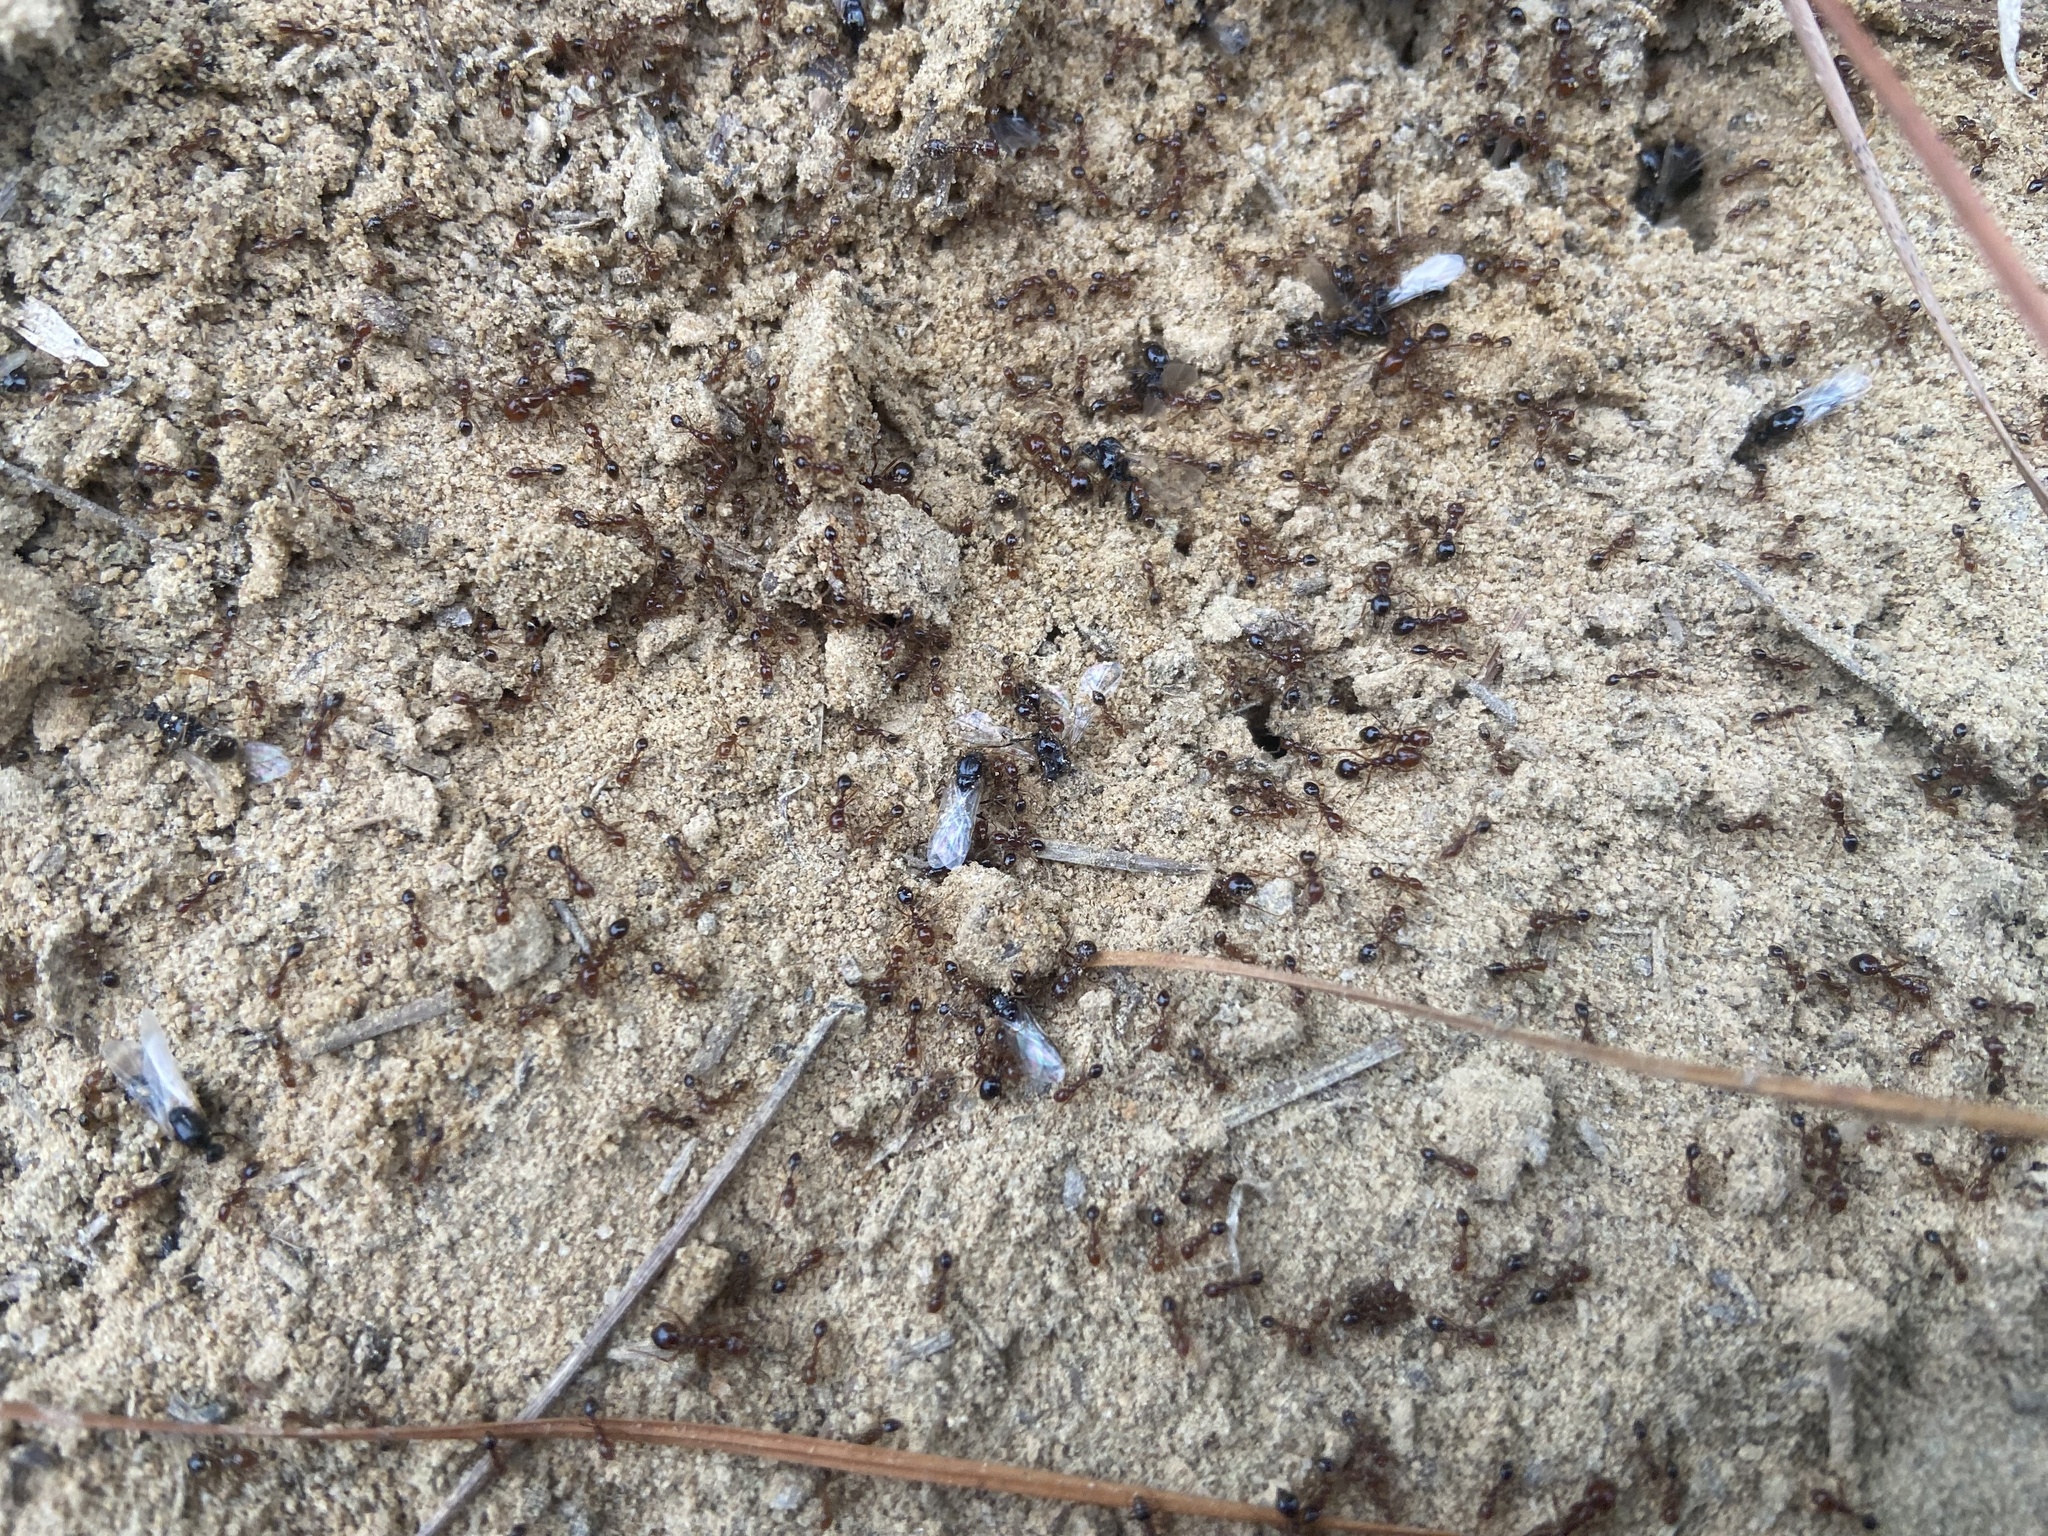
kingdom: Animalia
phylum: Arthropoda
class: Insecta
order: Hymenoptera
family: Formicidae
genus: Solenopsis
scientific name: Solenopsis invicta
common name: Red imported fire ant
